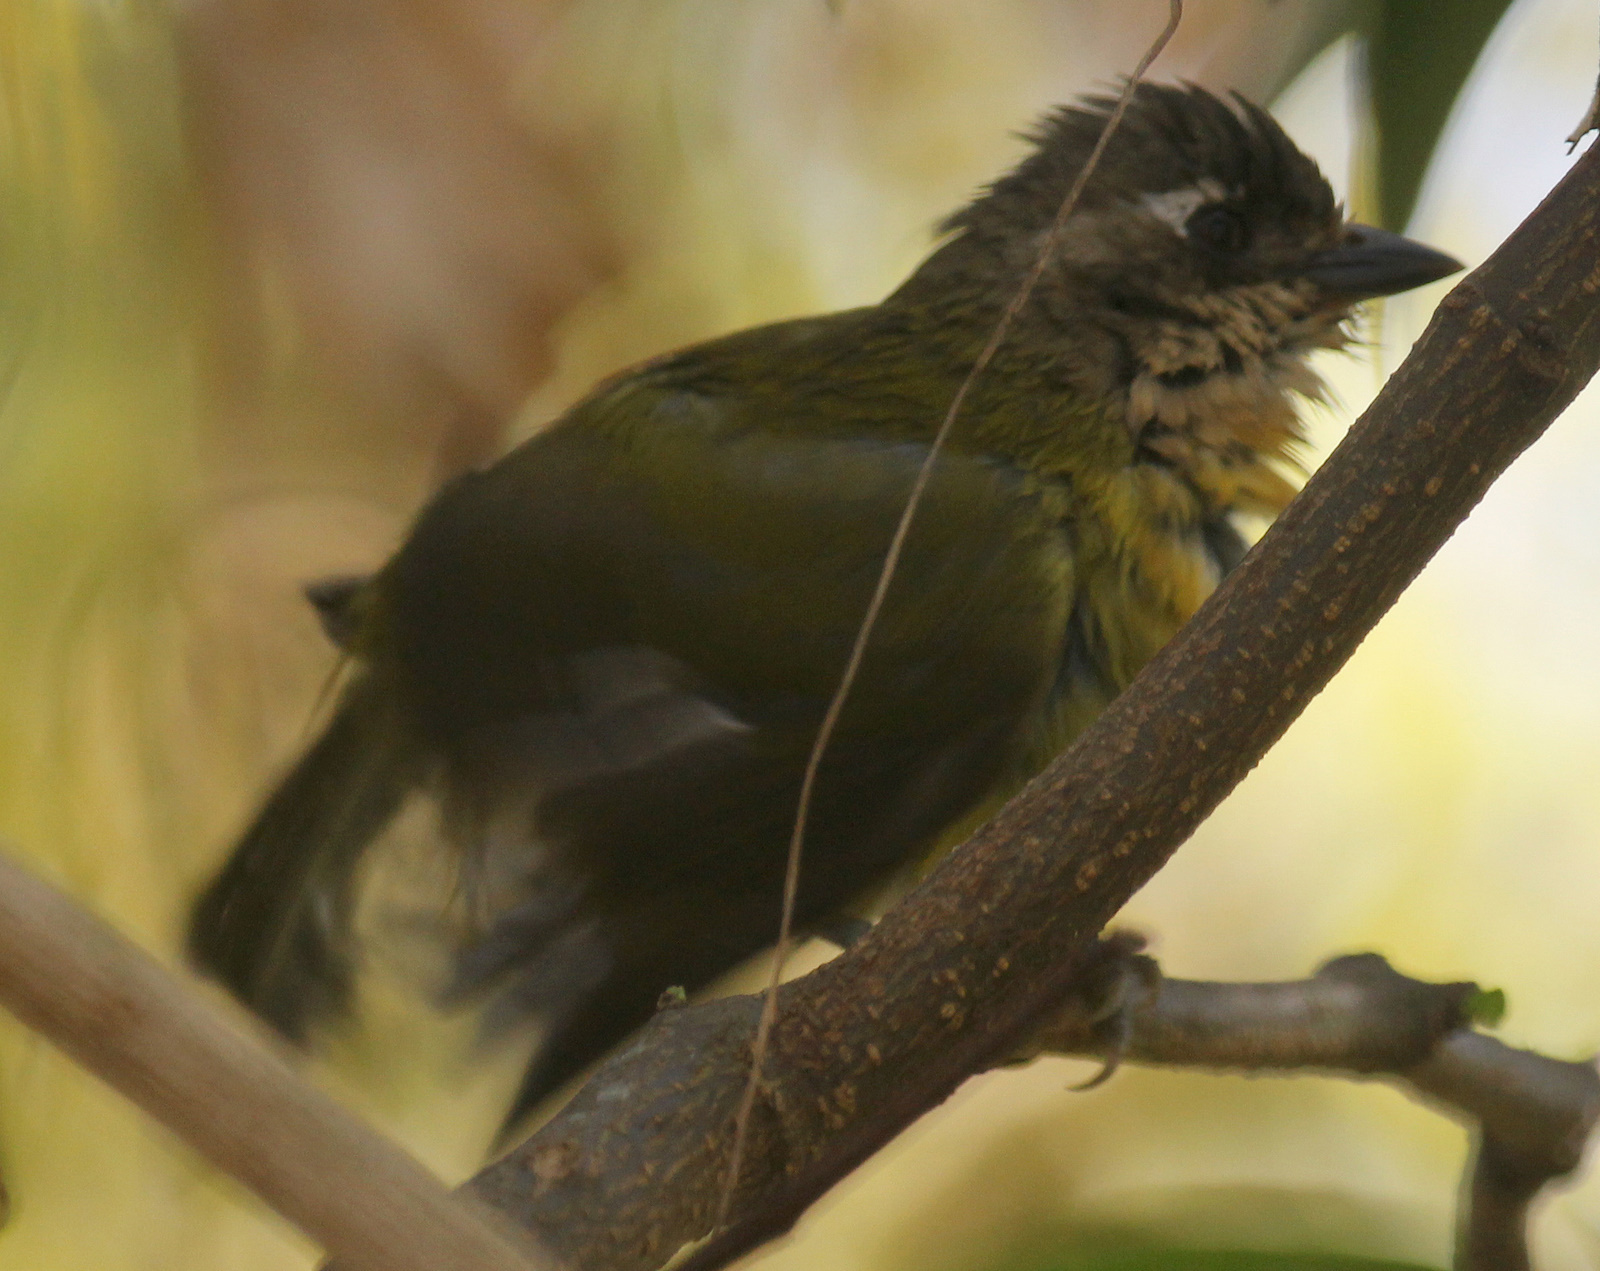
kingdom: Animalia
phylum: Chordata
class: Aves
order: Passeriformes
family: Passerellidae
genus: Chlorospingus
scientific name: Chlorospingus flavopectus
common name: Common chlorospingus
